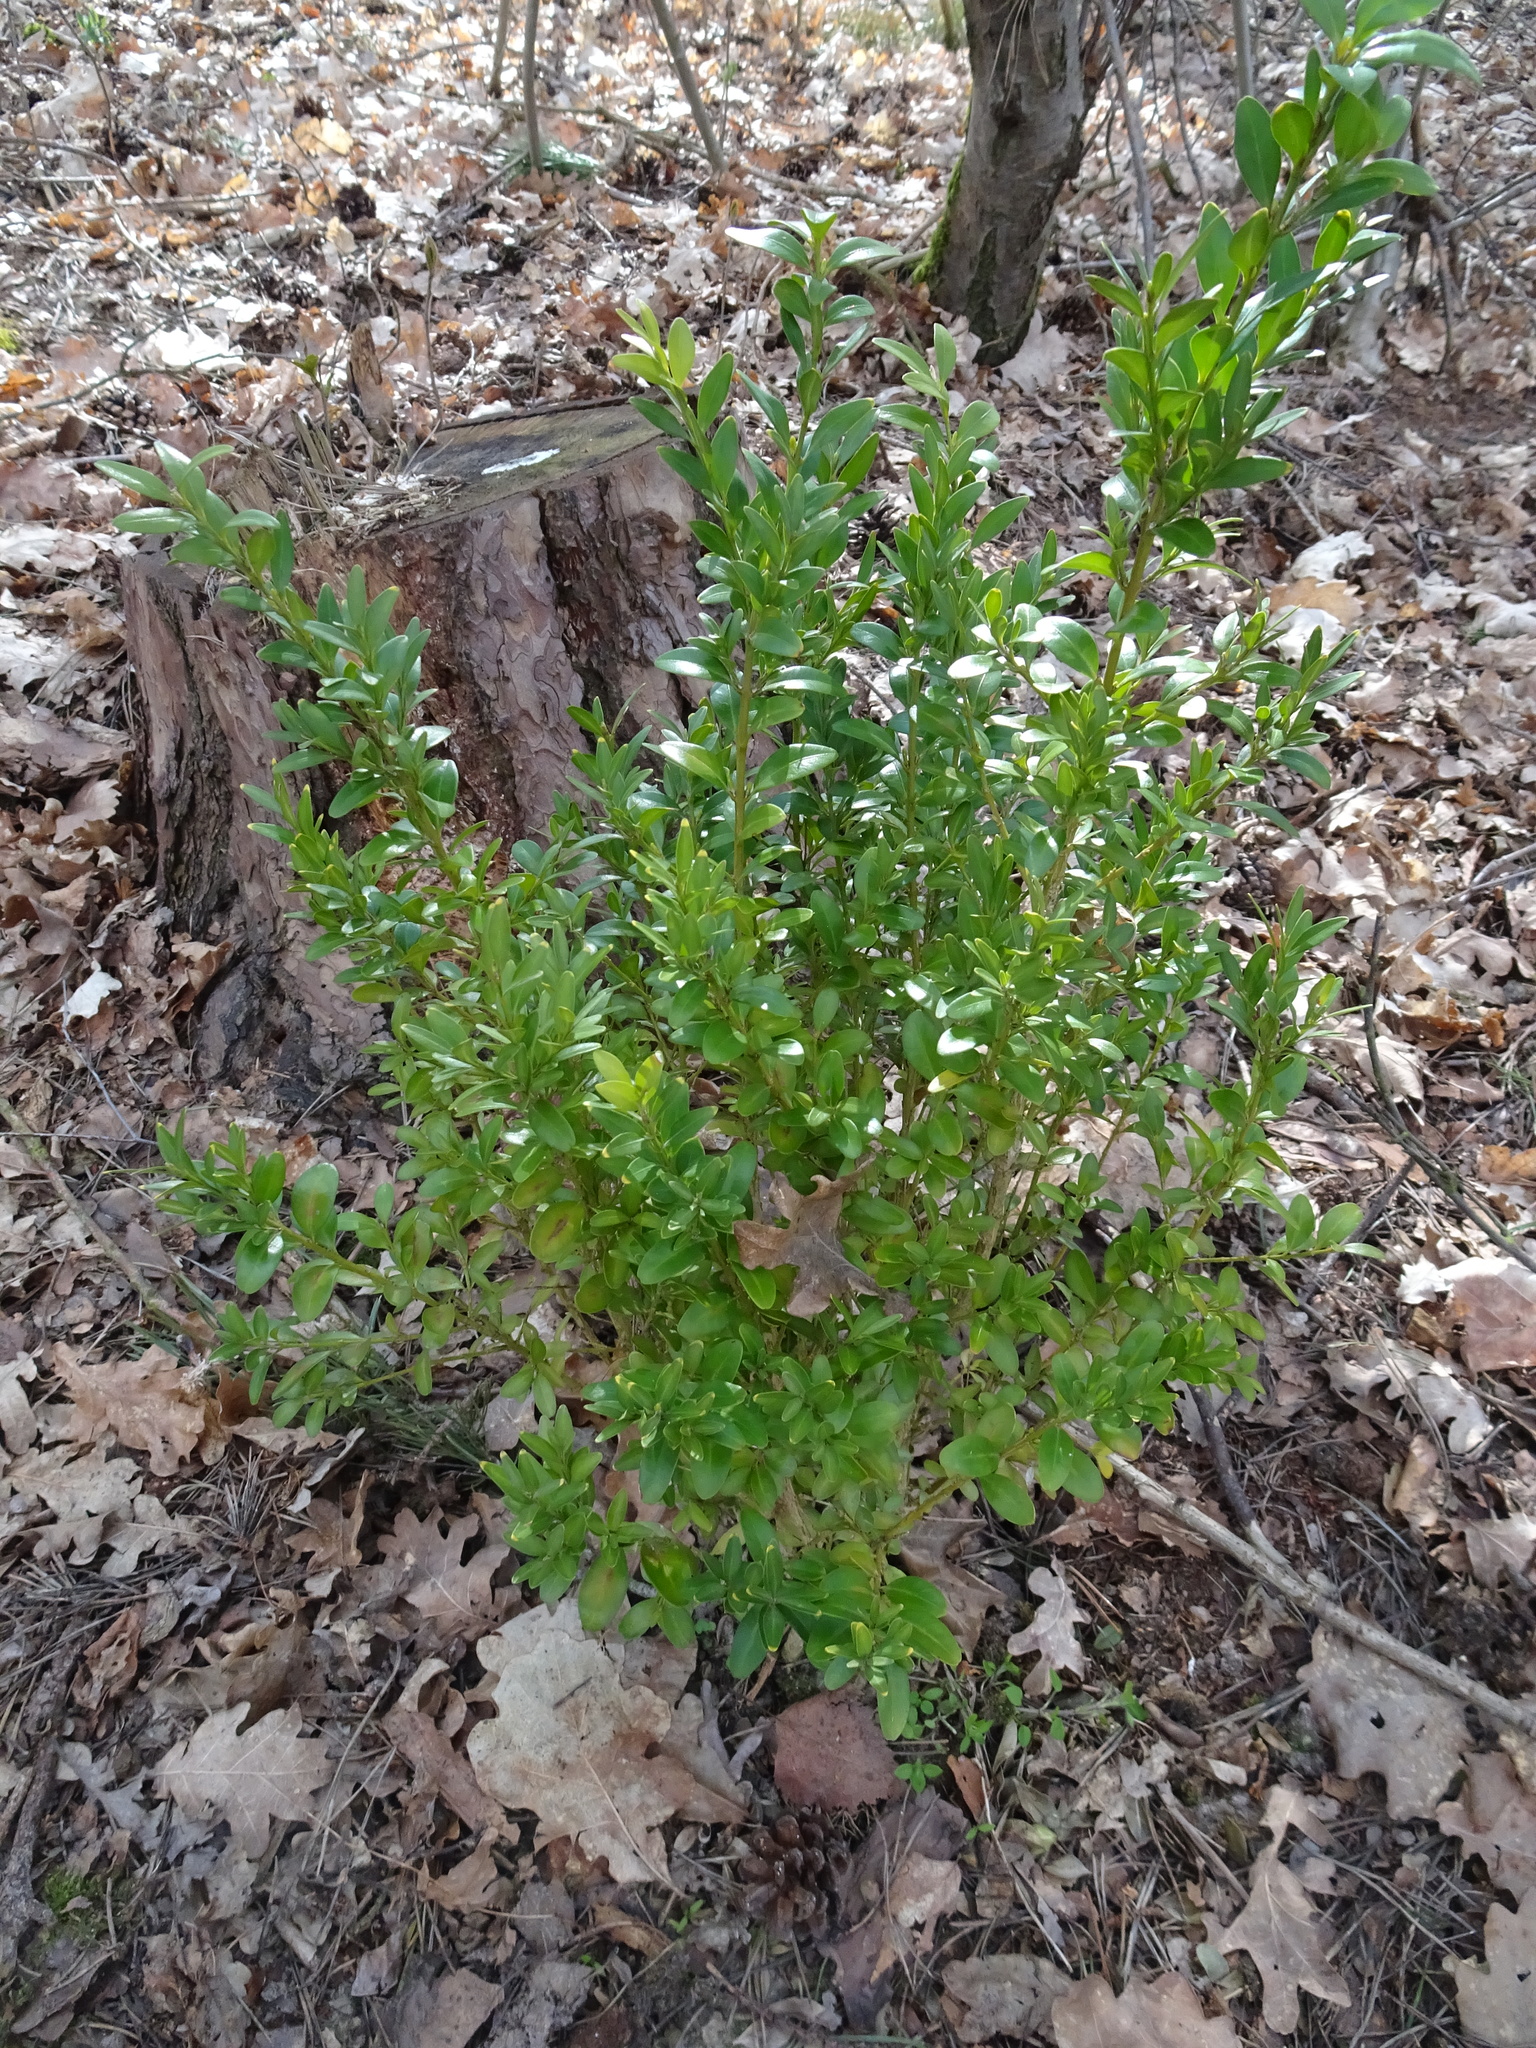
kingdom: Plantae
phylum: Tracheophyta
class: Magnoliopsida
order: Buxales
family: Buxaceae
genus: Buxus
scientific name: Buxus sempervirens
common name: Box
